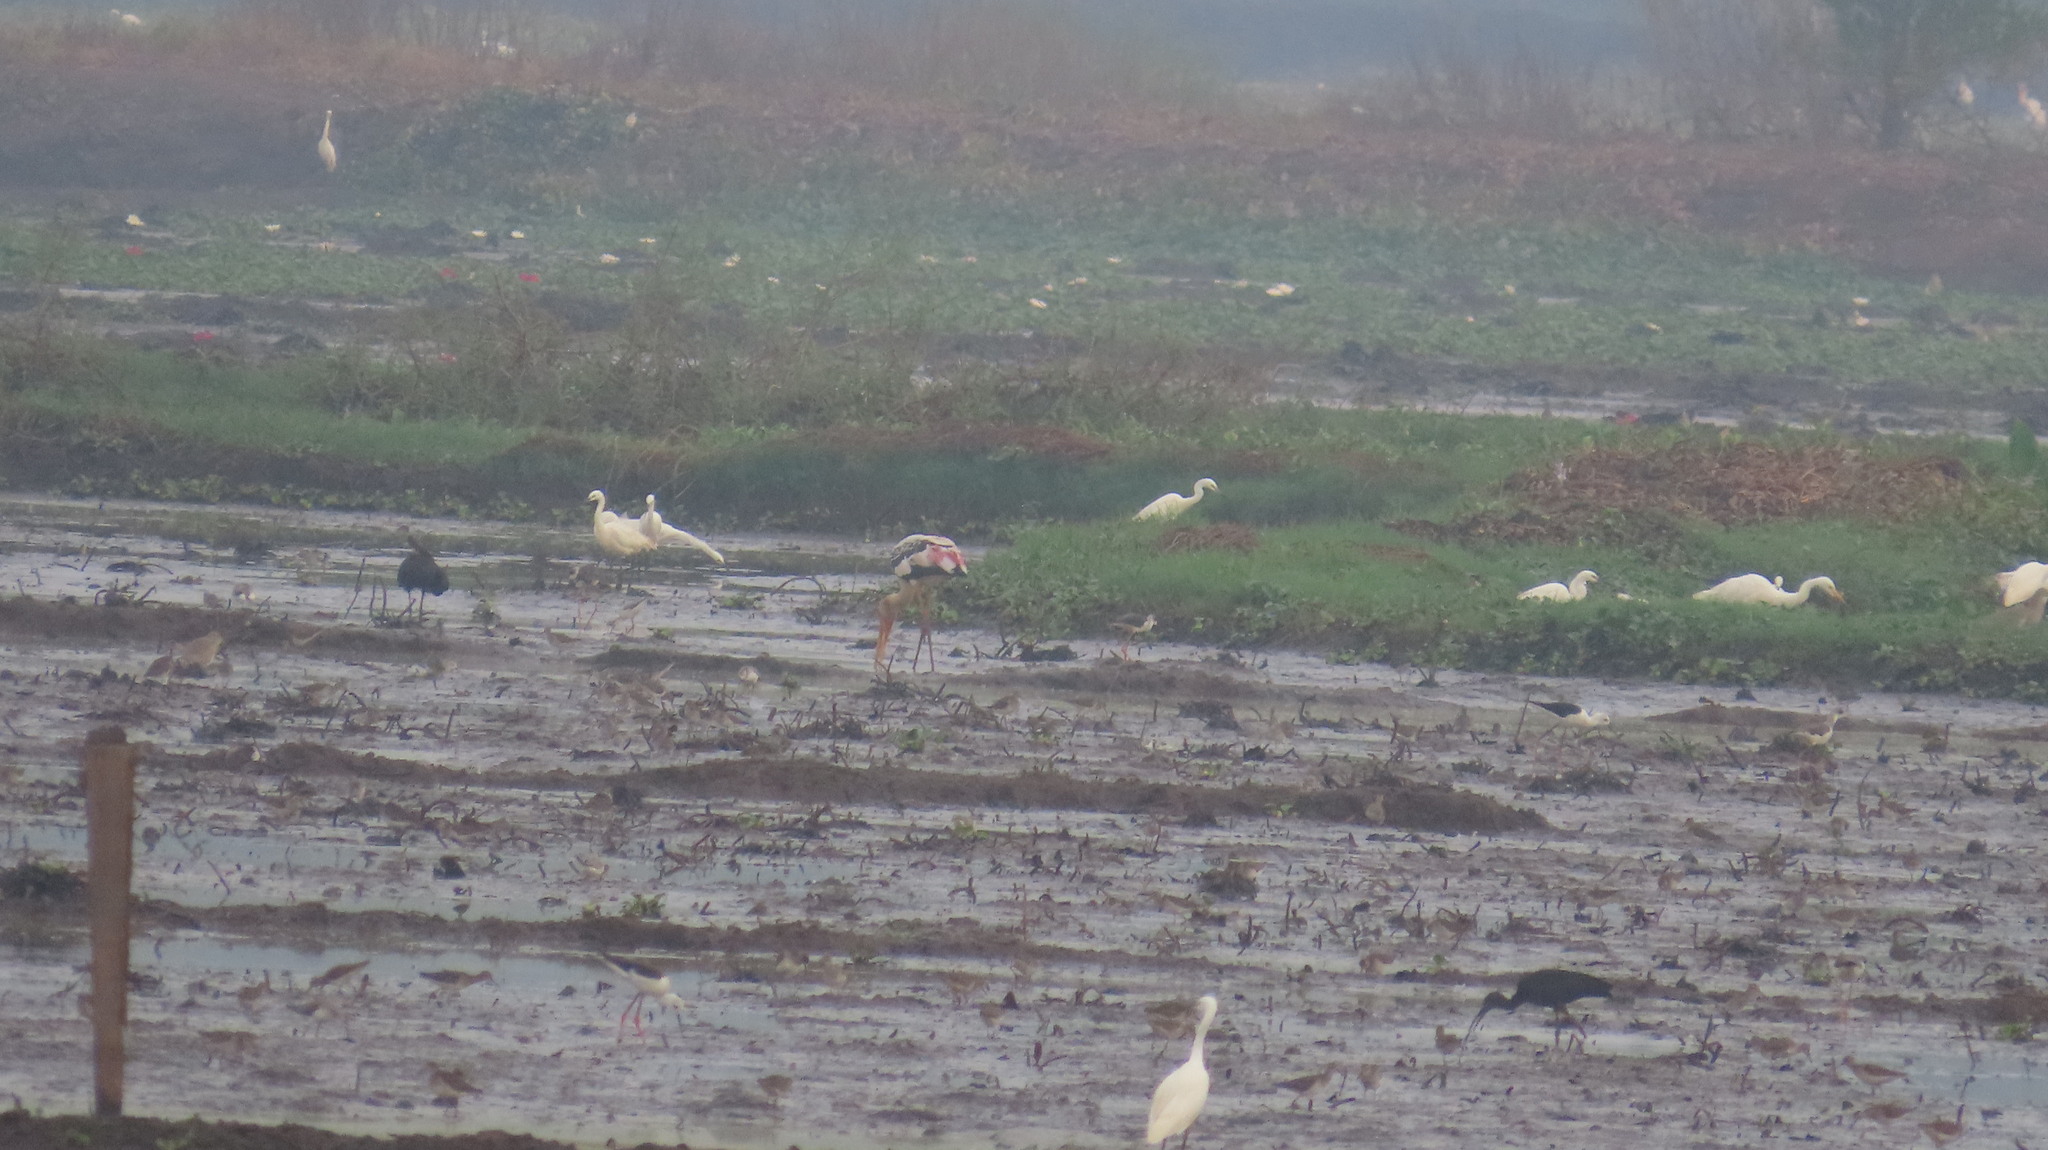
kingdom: Animalia
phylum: Chordata
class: Aves
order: Pelecaniformes
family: Ardeidae
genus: Egretta
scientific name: Egretta garzetta
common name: Little egret
